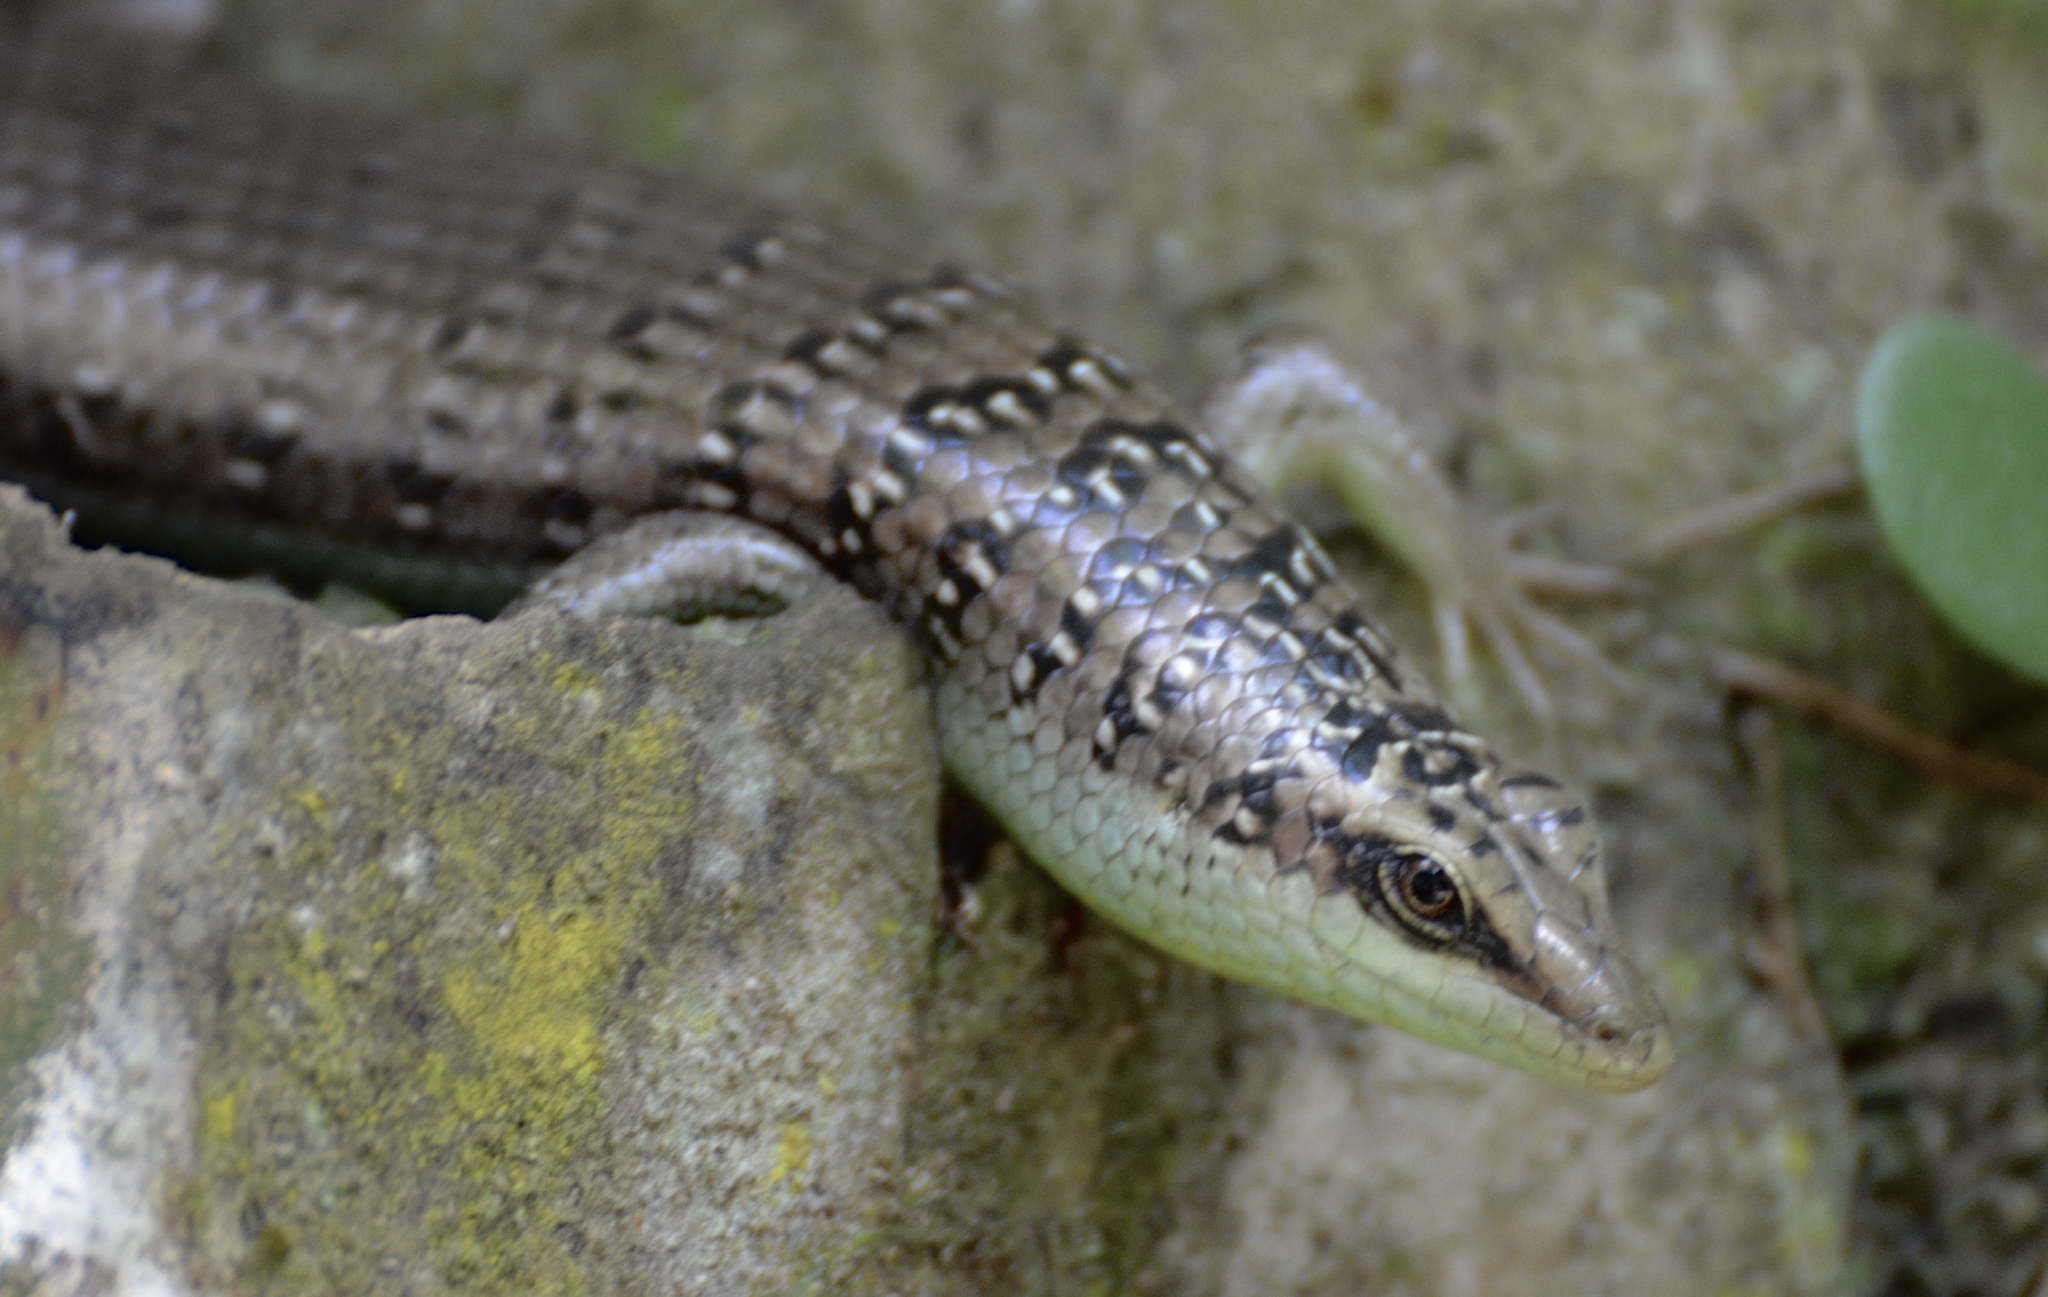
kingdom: Animalia
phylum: Chordata
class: Squamata
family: Scincidae
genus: Dasia
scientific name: Dasia olivacea
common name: Olive dasia
